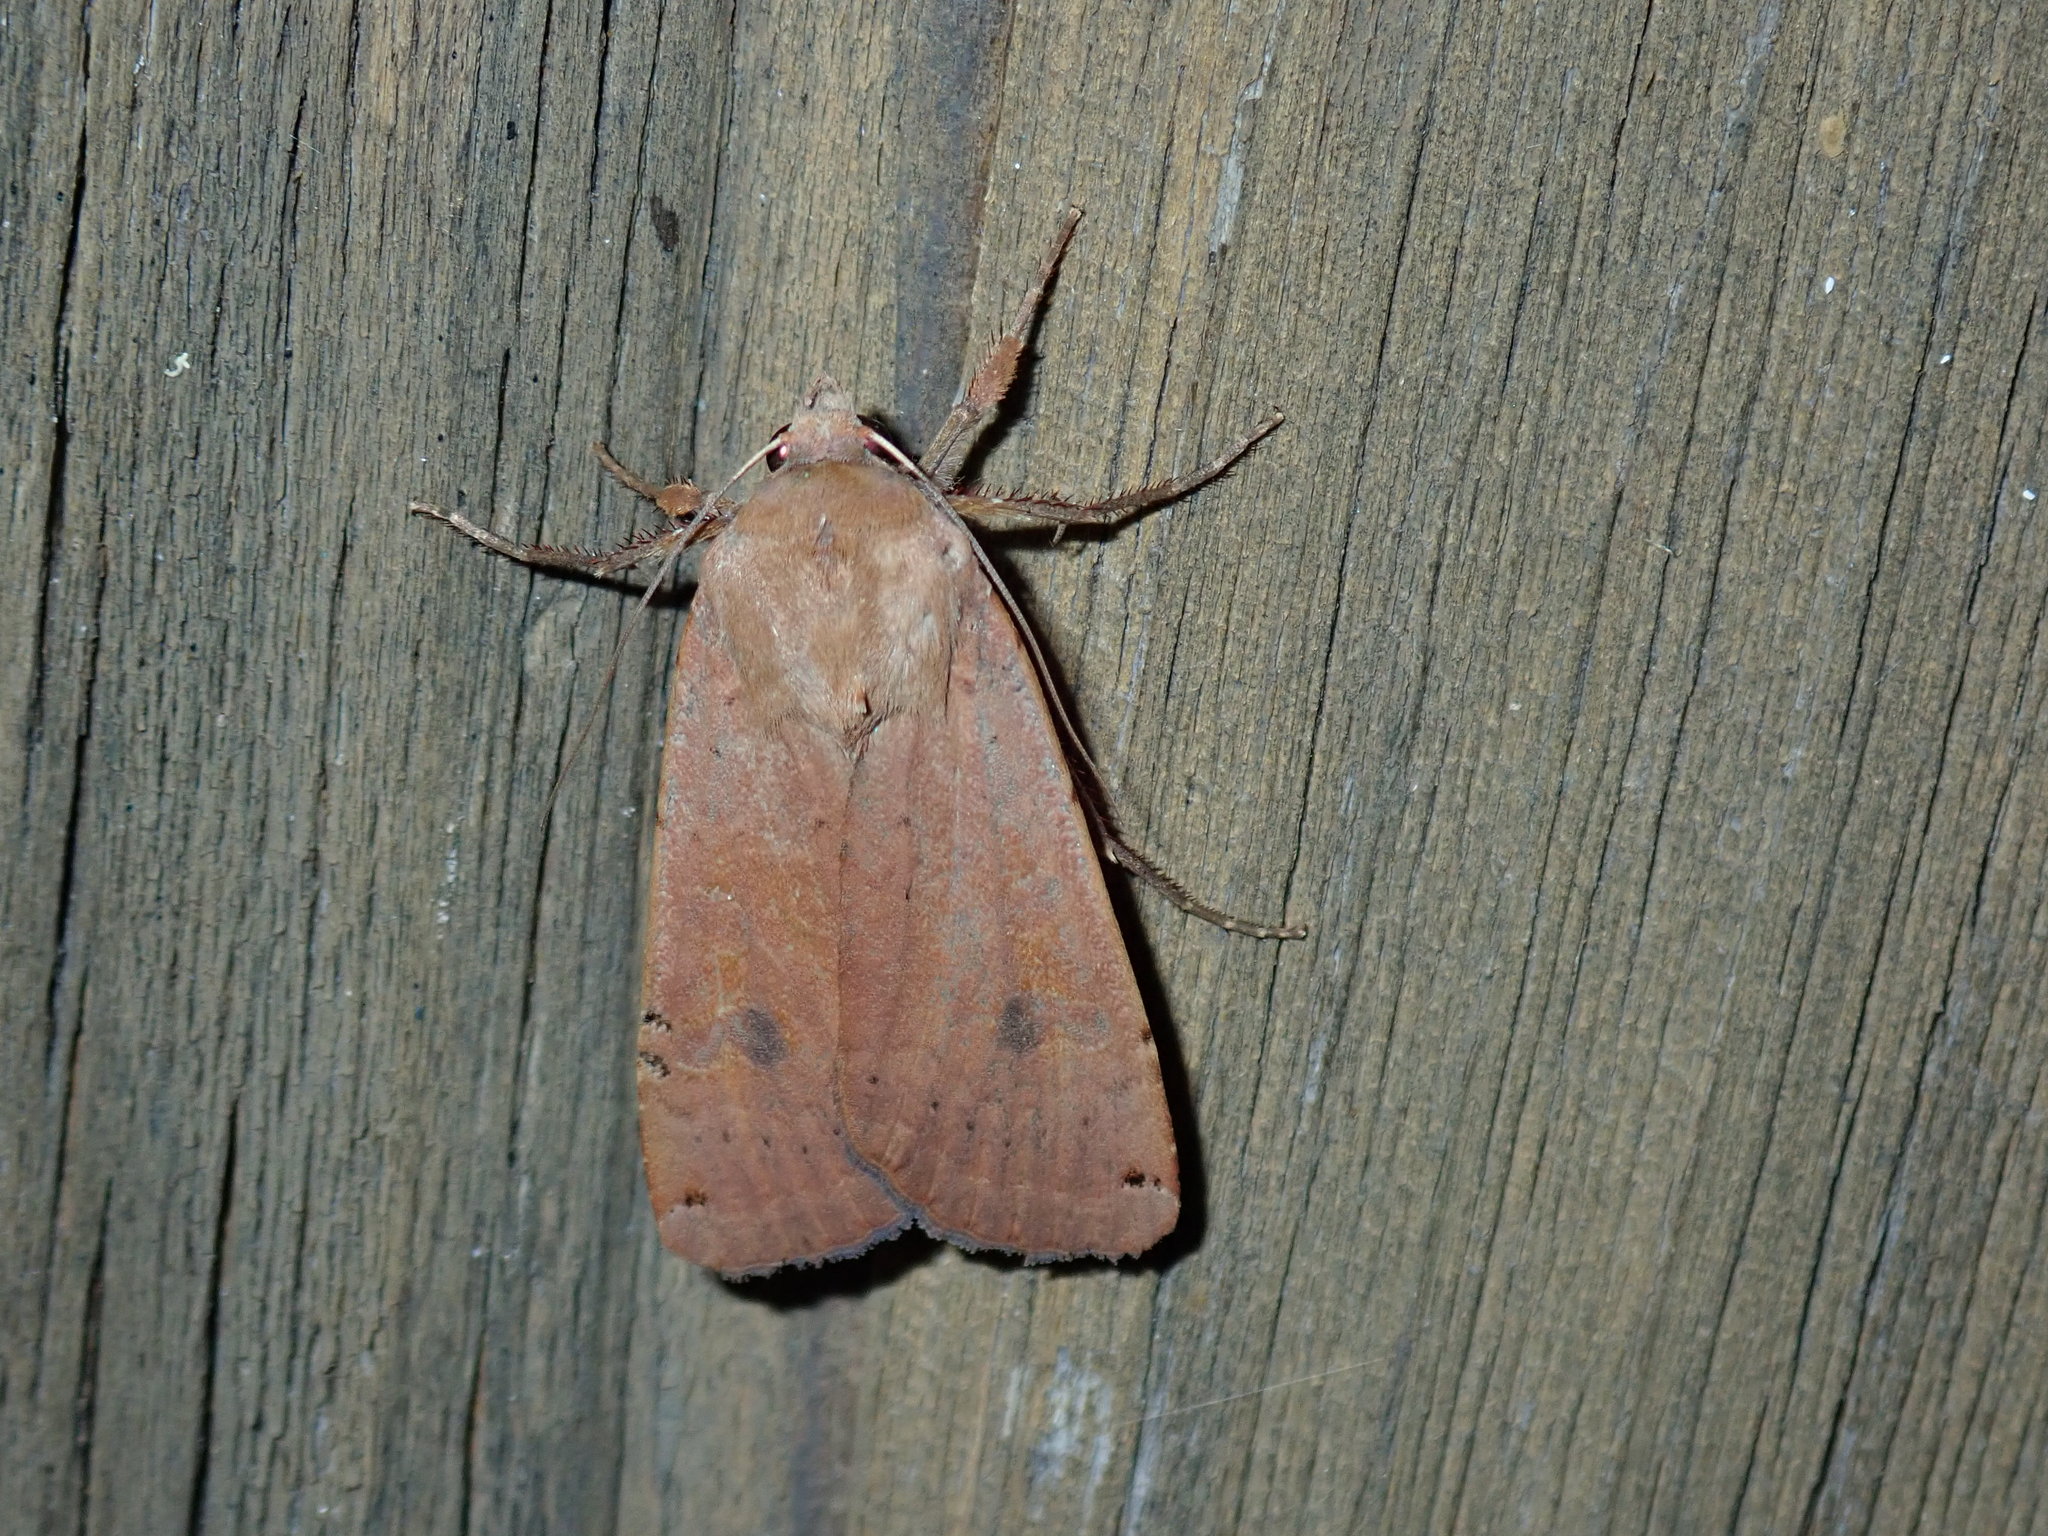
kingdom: Animalia
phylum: Arthropoda
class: Insecta
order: Lepidoptera
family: Noctuidae
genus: Noctua
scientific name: Noctua pronuba
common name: Large yellow underwing
